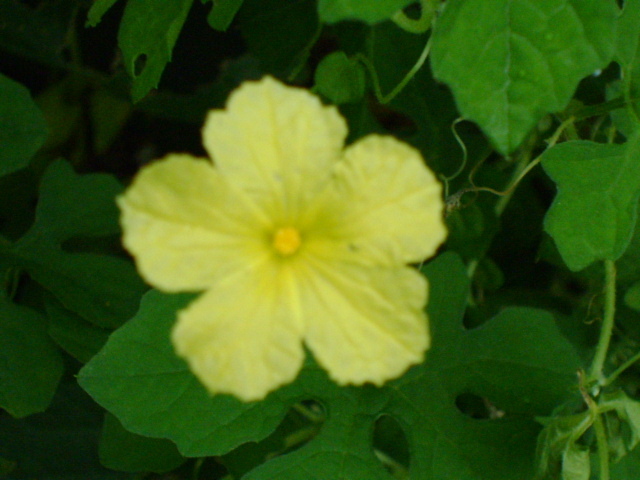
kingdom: Plantae
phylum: Tracheophyta
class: Magnoliopsida
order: Cucurbitales
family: Cucurbitaceae
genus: Momordica
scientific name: Momordica charantia
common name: Balsampear
